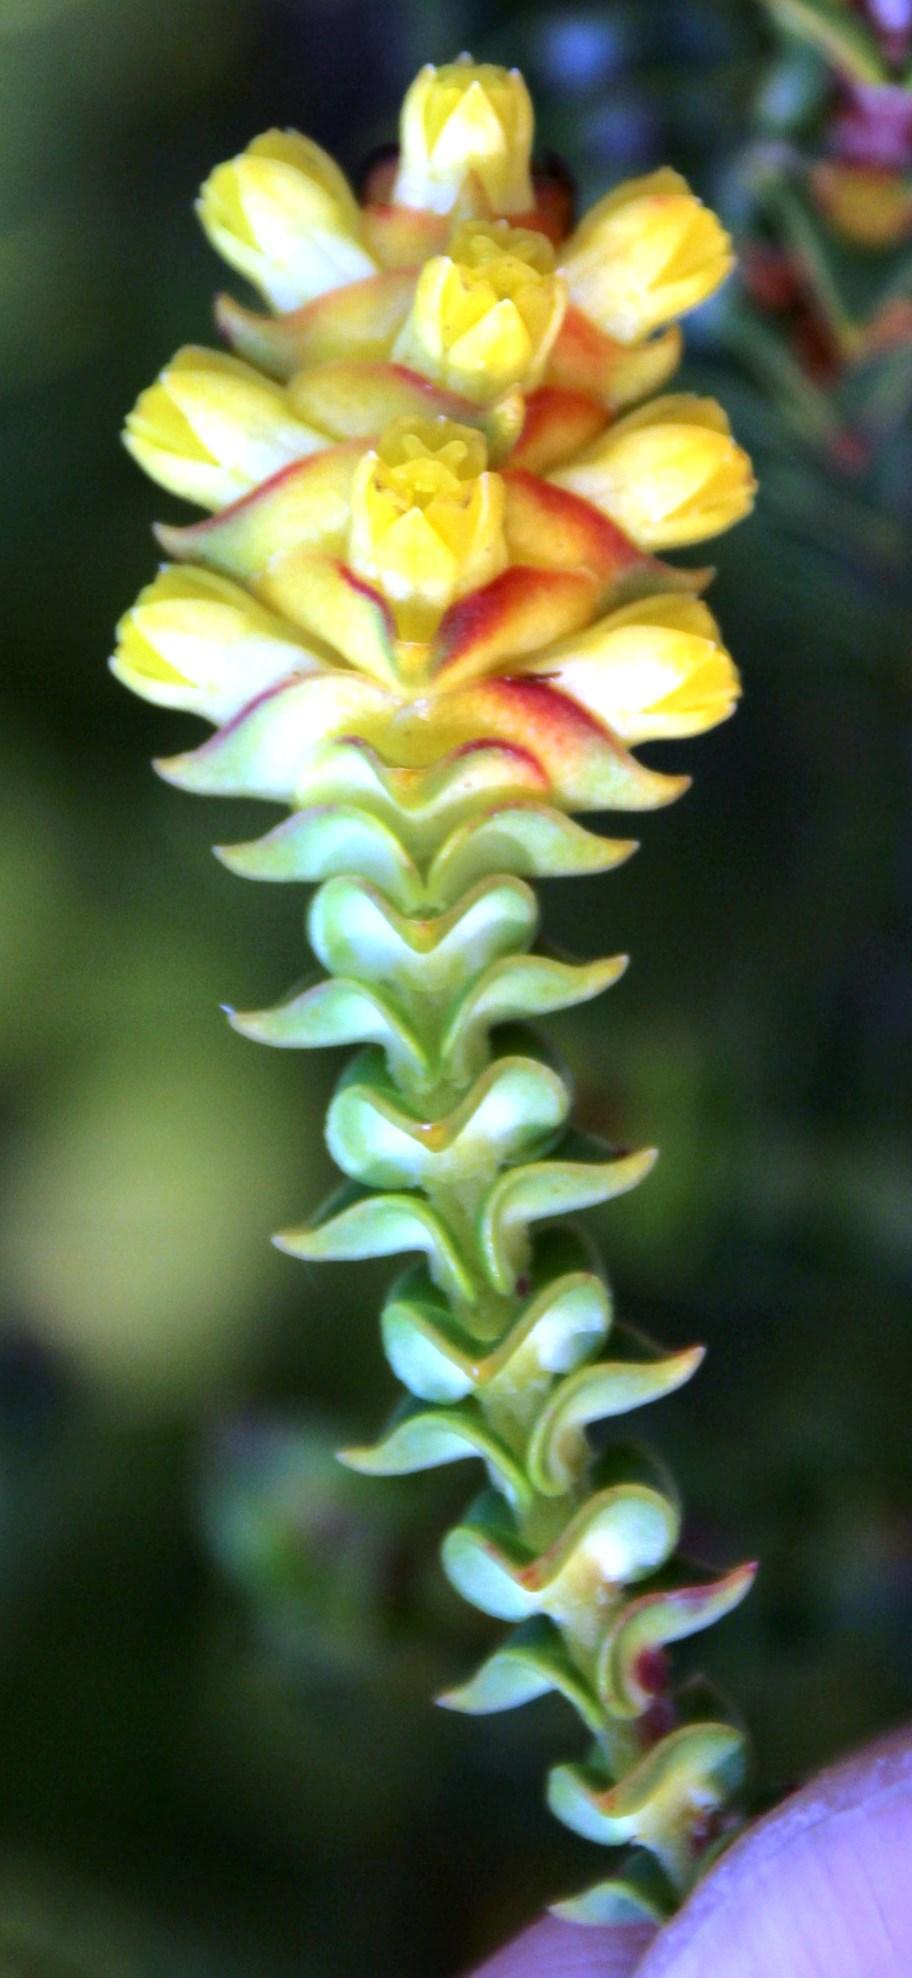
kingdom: Plantae
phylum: Tracheophyta
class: Magnoliopsida
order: Myrtales
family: Penaeaceae
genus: Penaea
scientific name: Penaea mucronata
